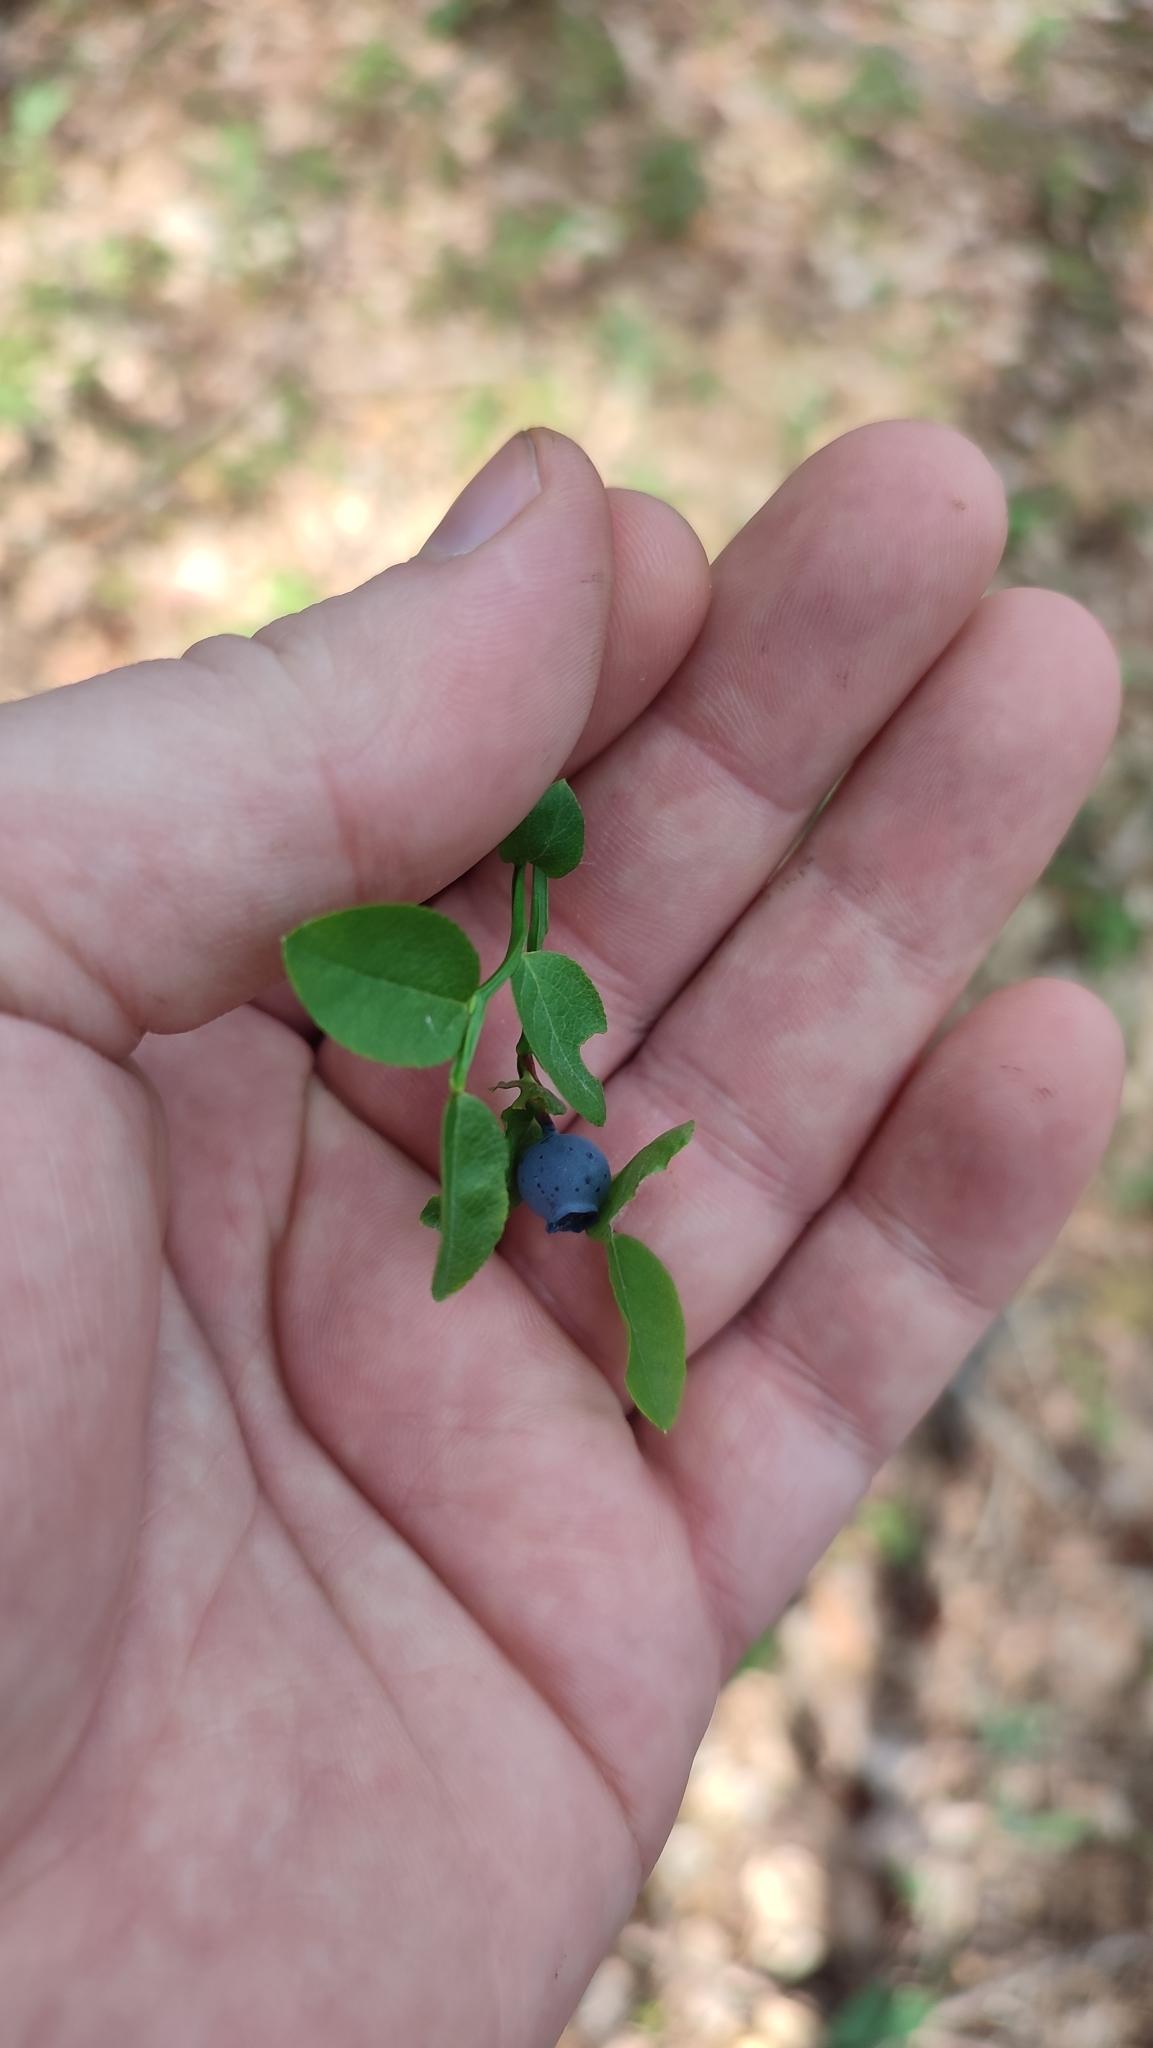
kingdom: Plantae
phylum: Tracheophyta
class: Magnoliopsida
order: Ericales
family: Ericaceae
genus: Vaccinium
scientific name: Vaccinium myrtillus
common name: Bilberry
